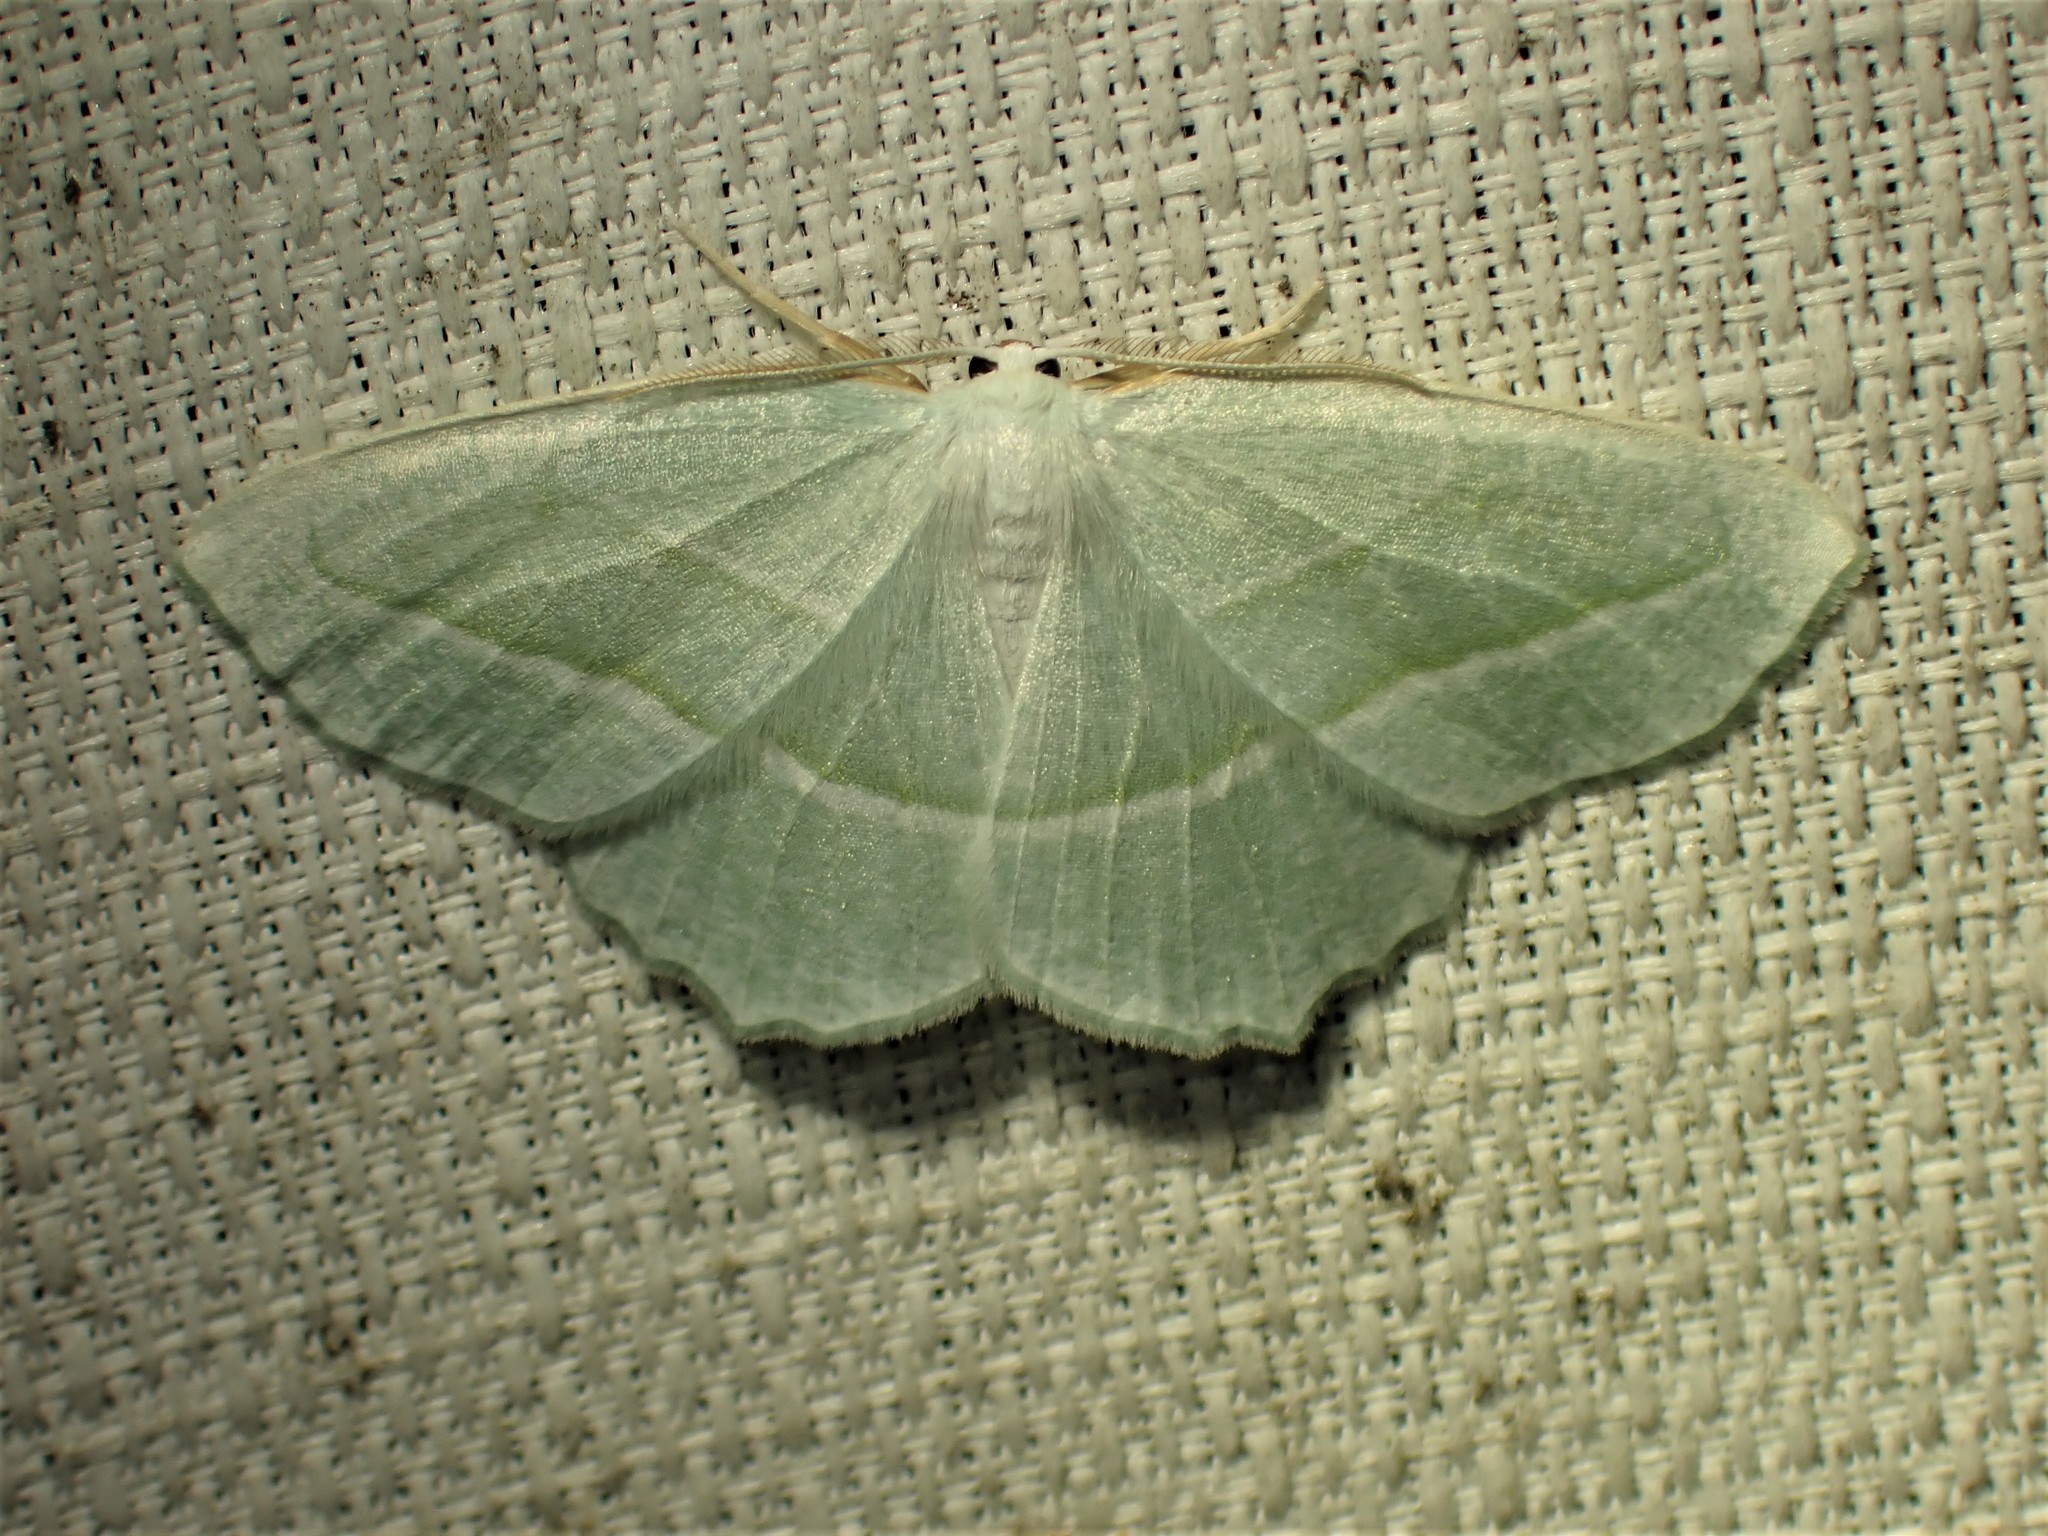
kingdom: Animalia
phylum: Arthropoda
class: Insecta
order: Lepidoptera
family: Geometridae
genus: Campaea
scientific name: Campaea perlata
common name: Fringed looper
